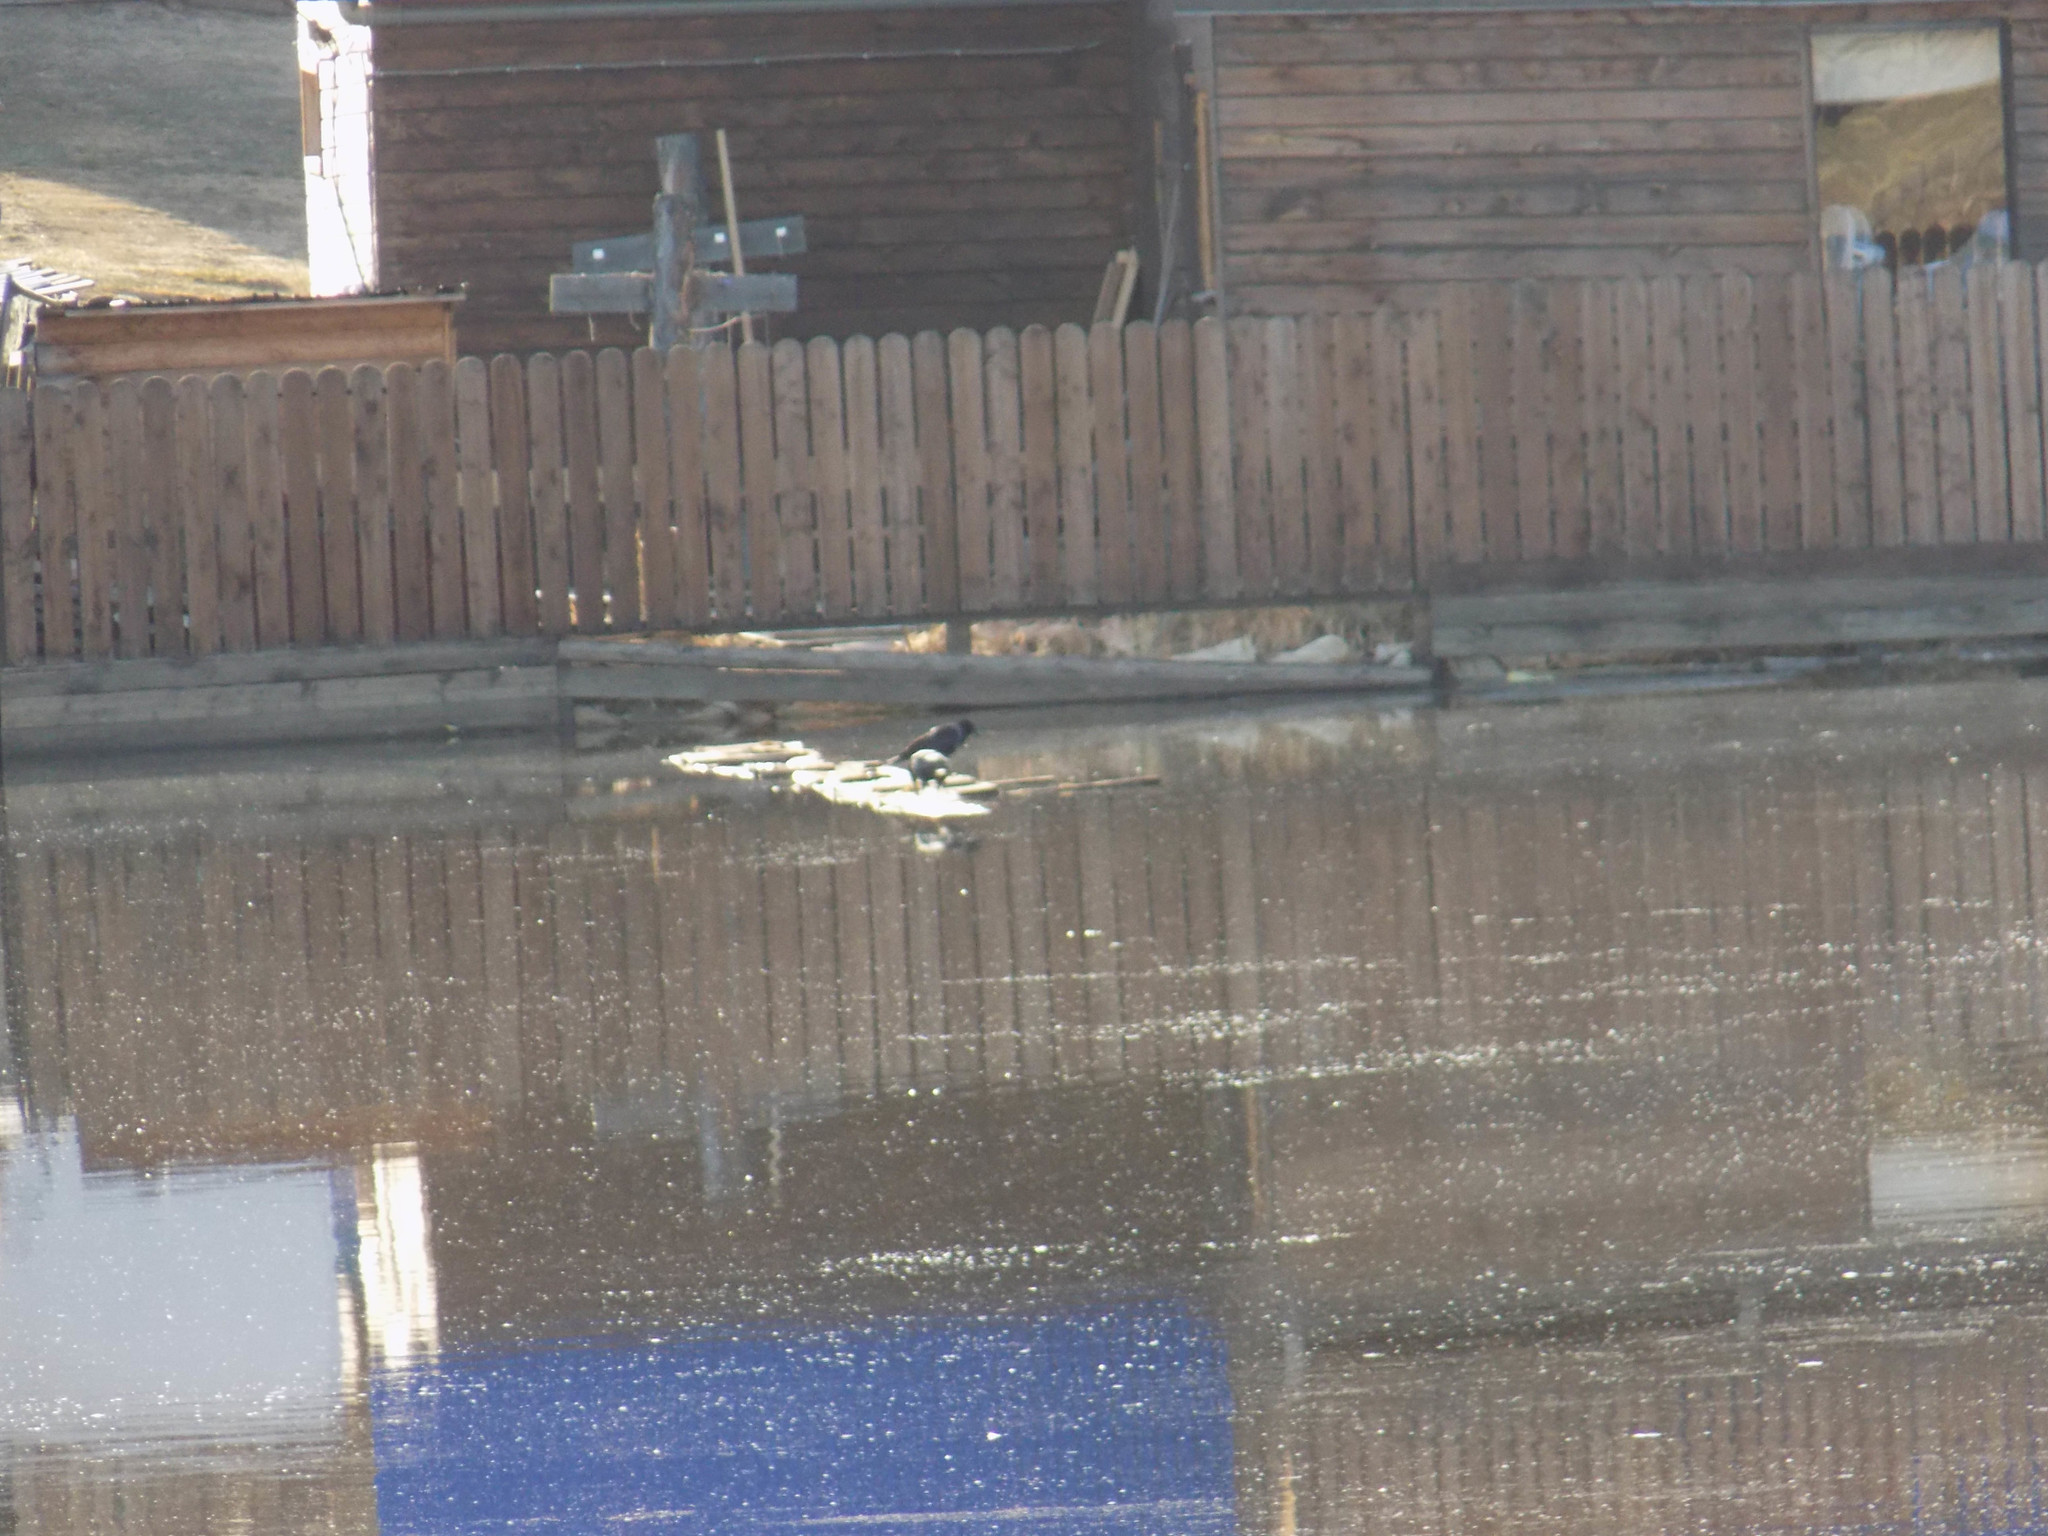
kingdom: Animalia
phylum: Chordata
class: Aves
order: Passeriformes
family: Corvidae
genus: Corvus
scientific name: Corvus corone
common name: Carrion crow
